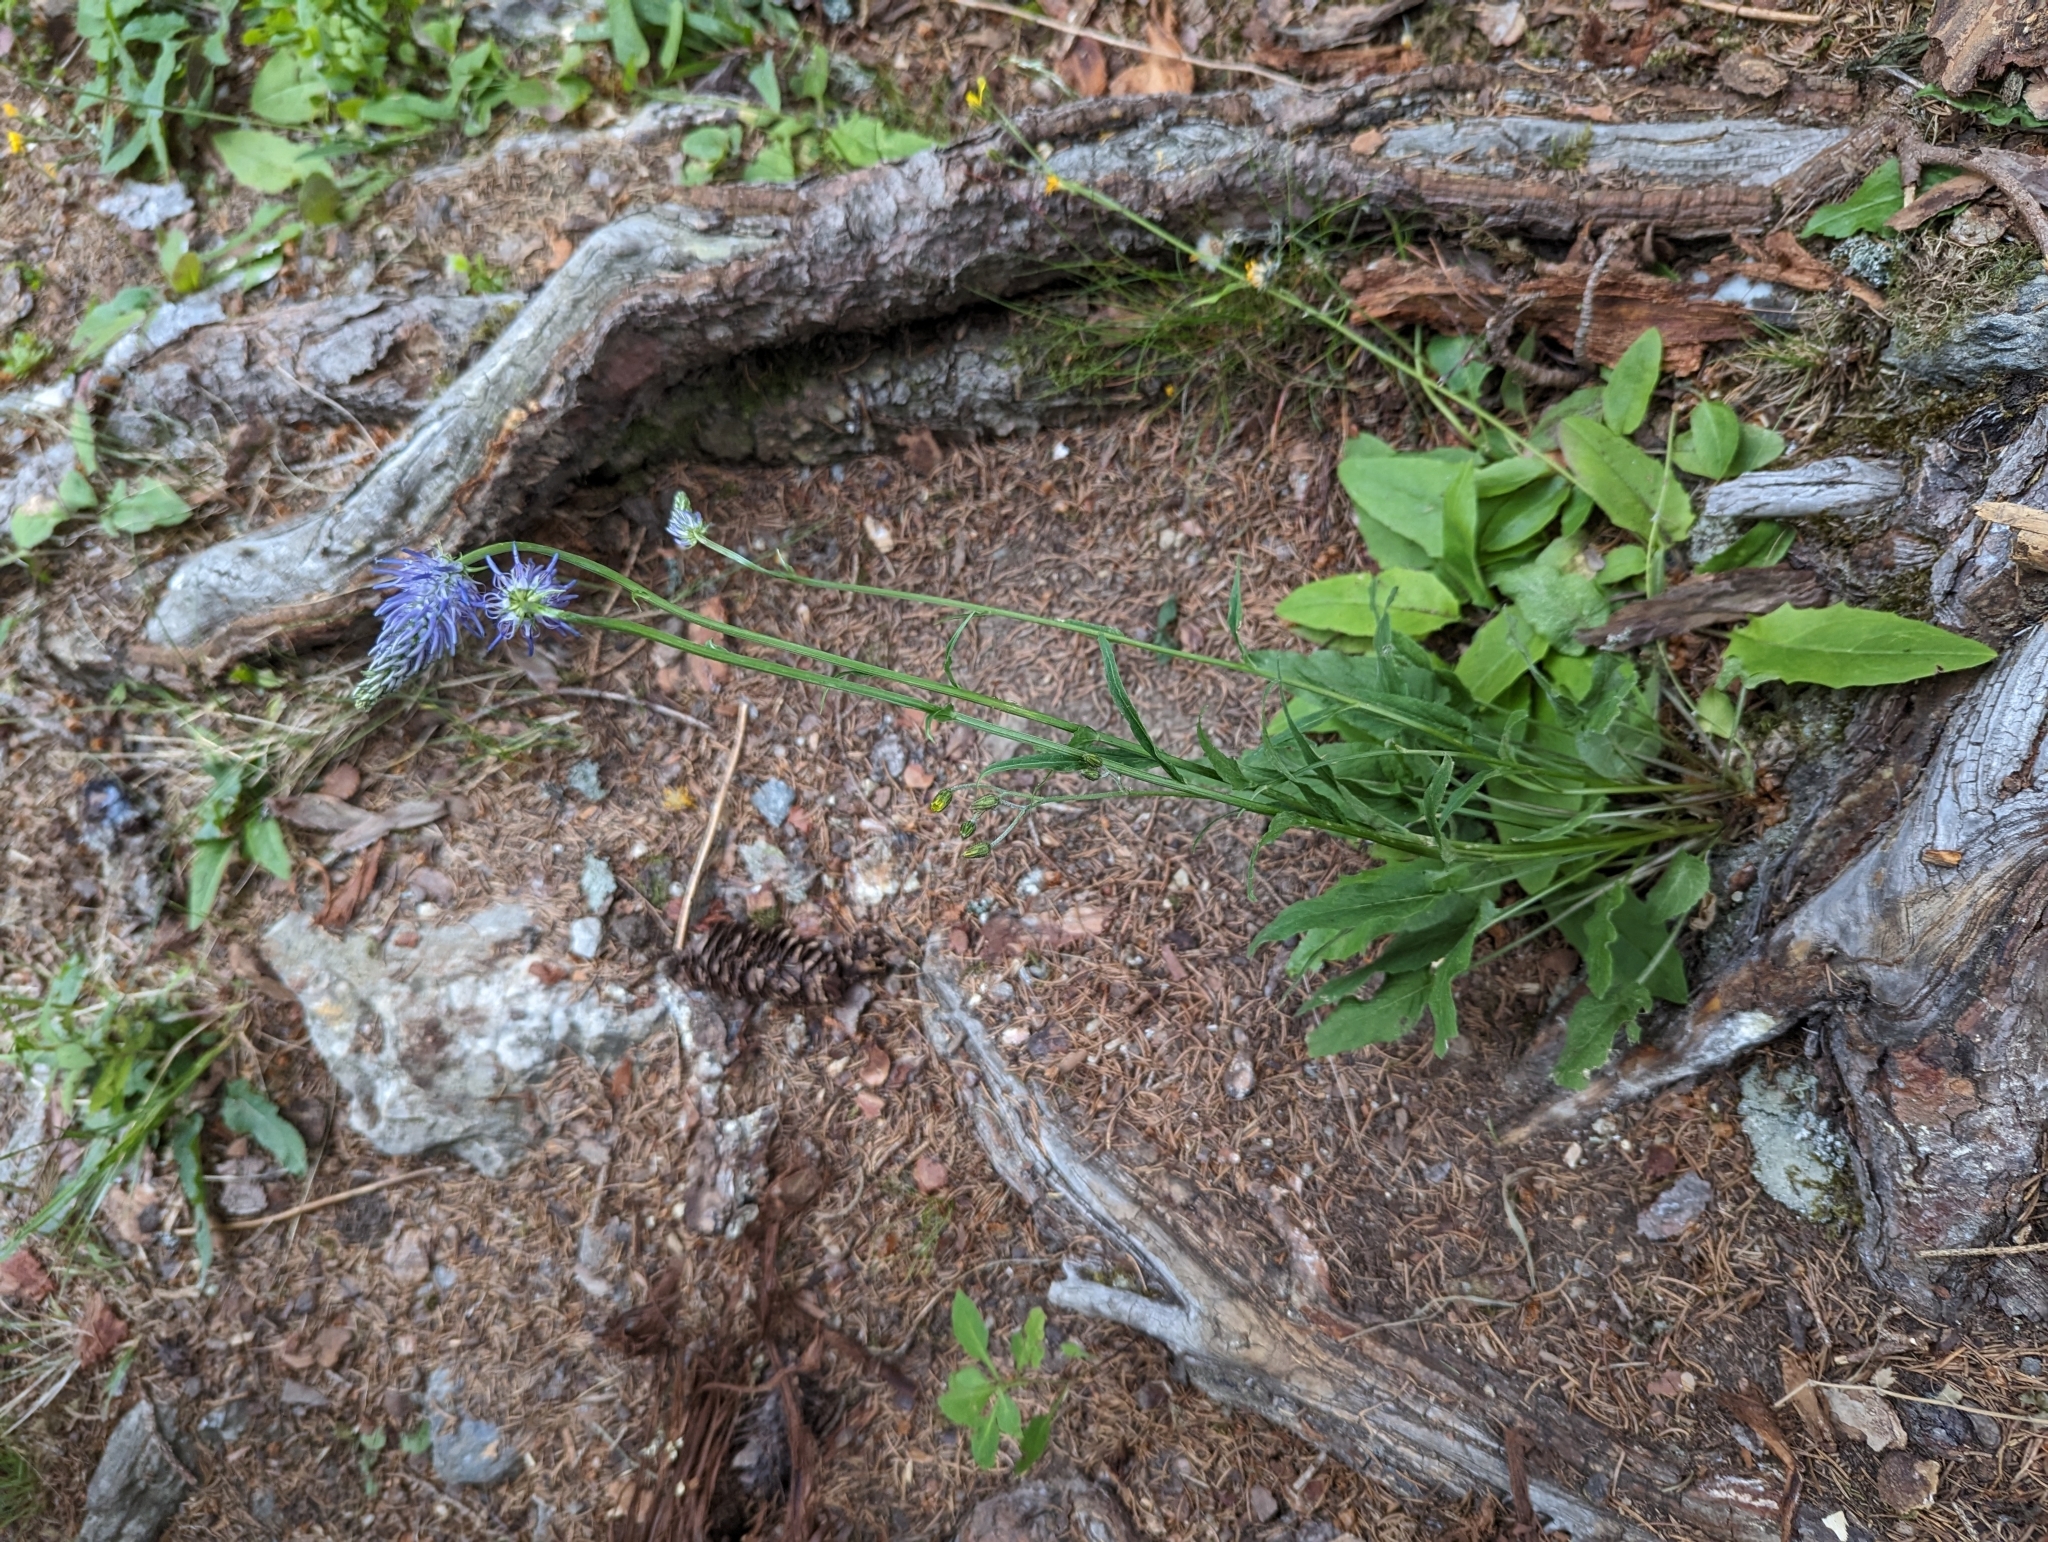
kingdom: Plantae
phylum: Tracheophyta
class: Magnoliopsida
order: Asterales
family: Campanulaceae
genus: Phyteuma
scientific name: Phyteuma betonicifolium
